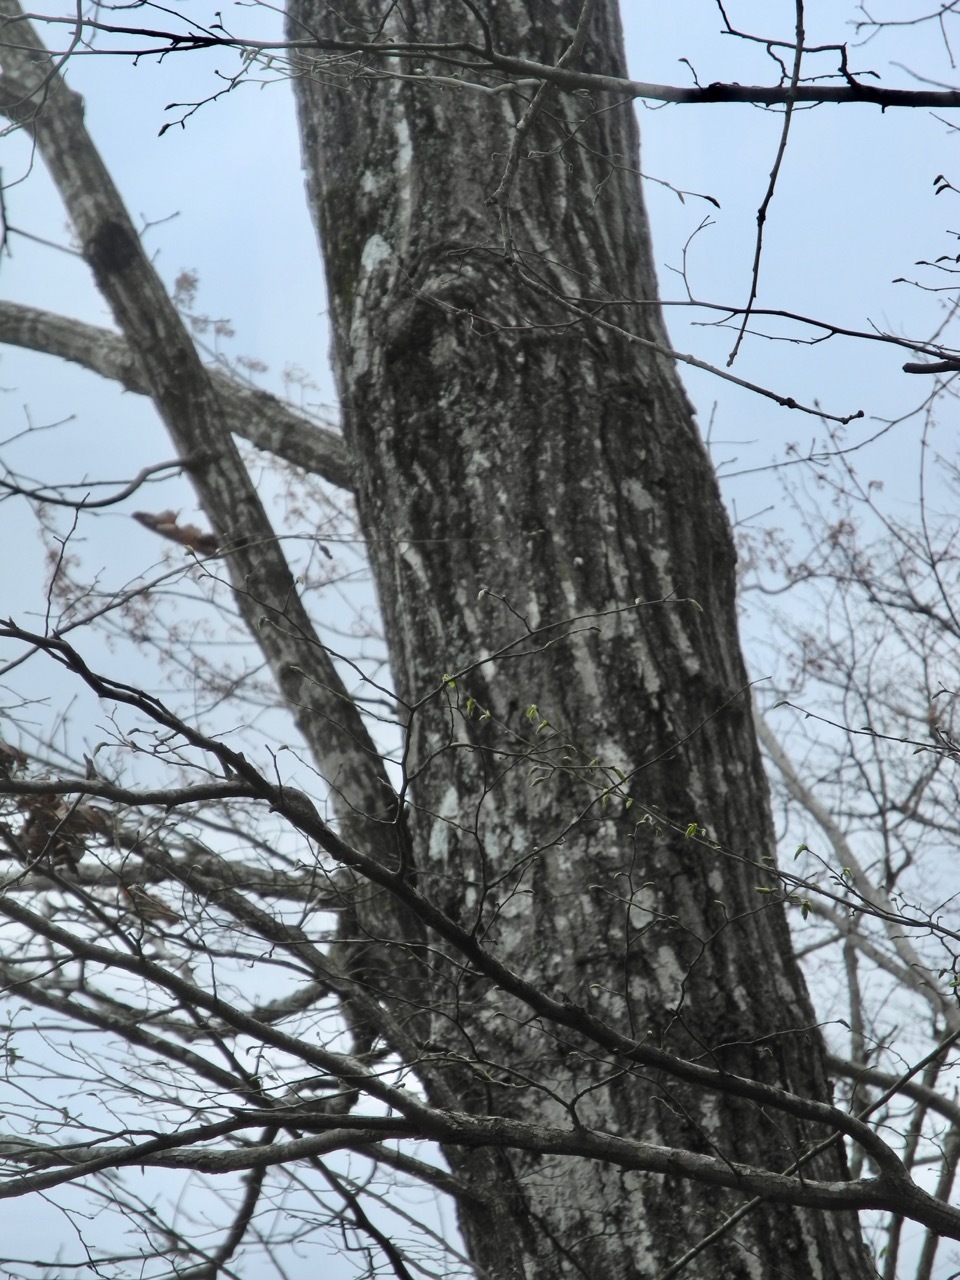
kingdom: Plantae
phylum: Tracheophyta
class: Magnoliopsida
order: Fagales
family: Fagaceae
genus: Quercus
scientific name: Quercus rubra
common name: Red oak
